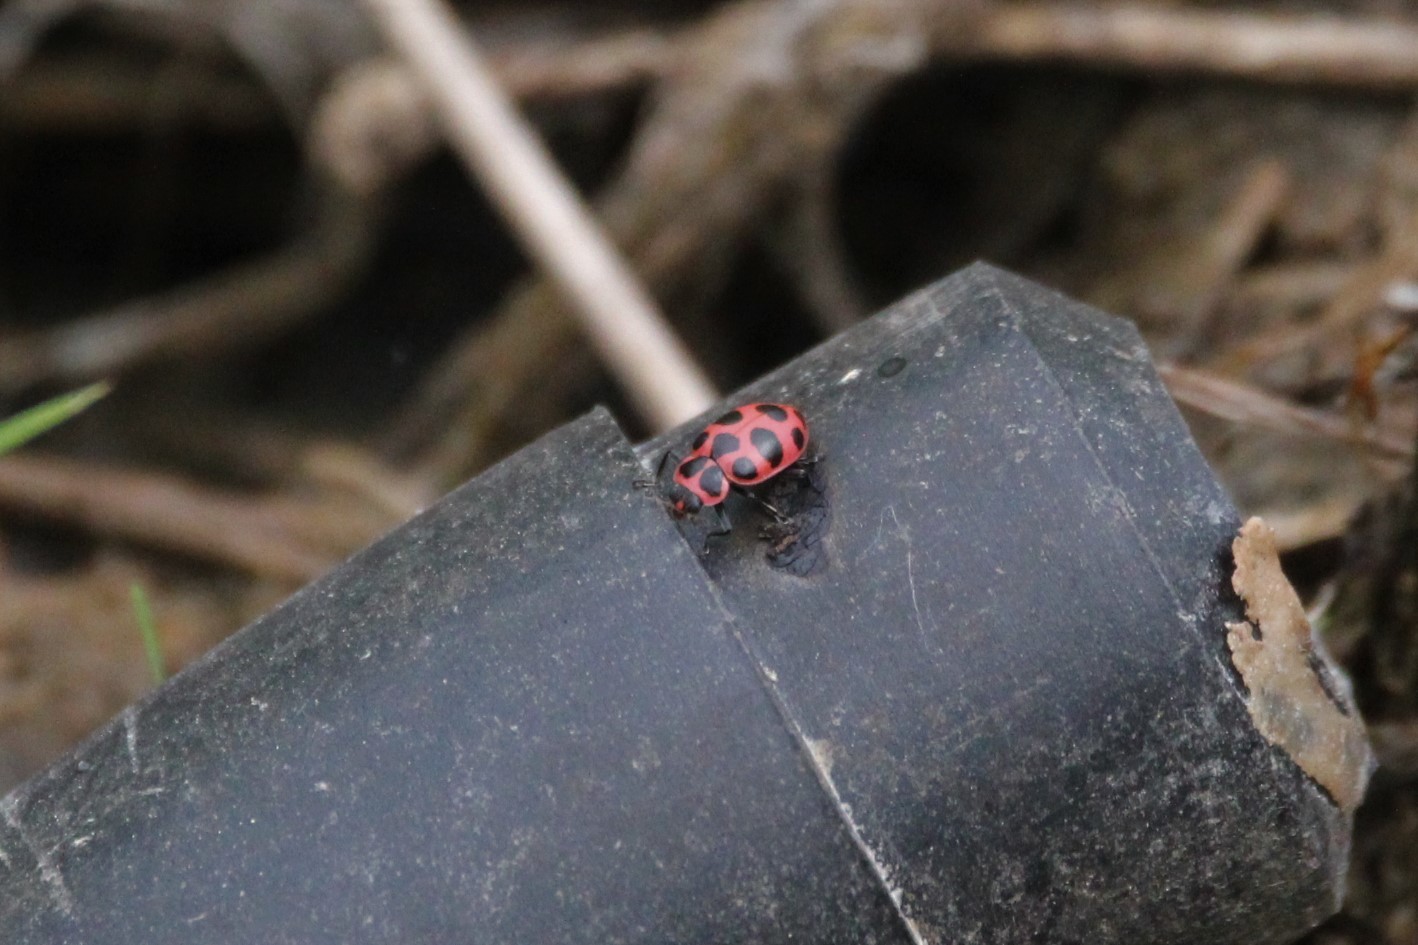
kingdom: Animalia
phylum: Arthropoda
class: Insecta
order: Coleoptera
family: Coccinellidae
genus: Coleomegilla
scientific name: Coleomegilla maculata
